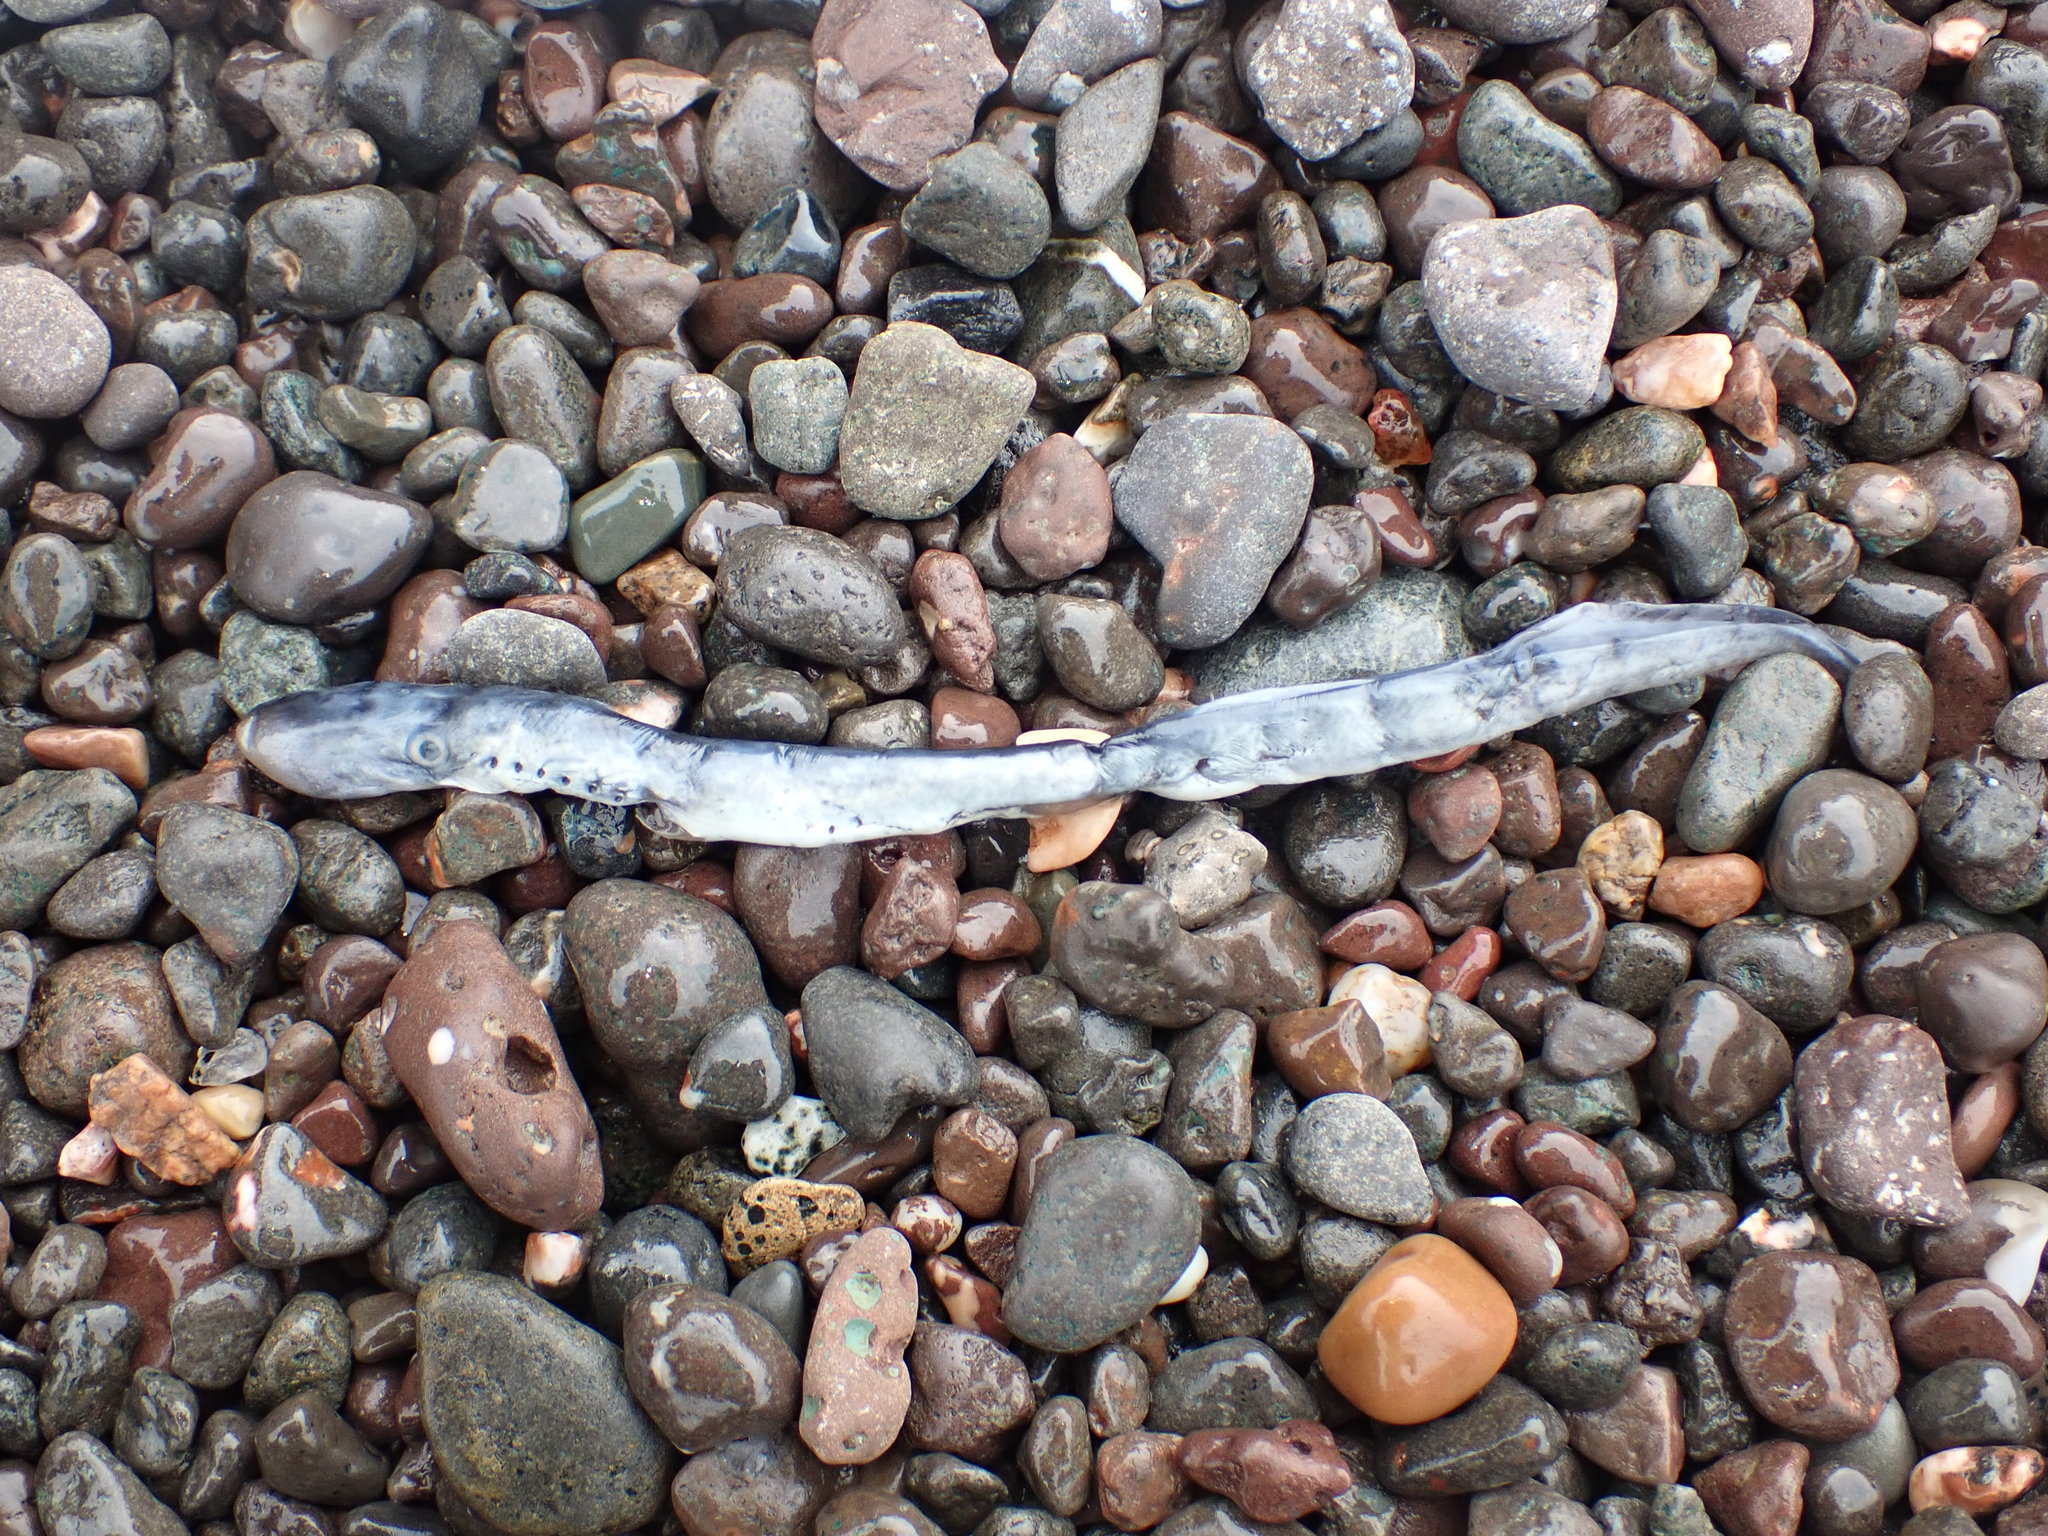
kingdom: Animalia
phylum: Chordata
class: Petromyzonti
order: Petromyzontiformes
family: Petromyzontidae
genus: Petromyzon
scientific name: Petromyzon marinus
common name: Sea lamprey
